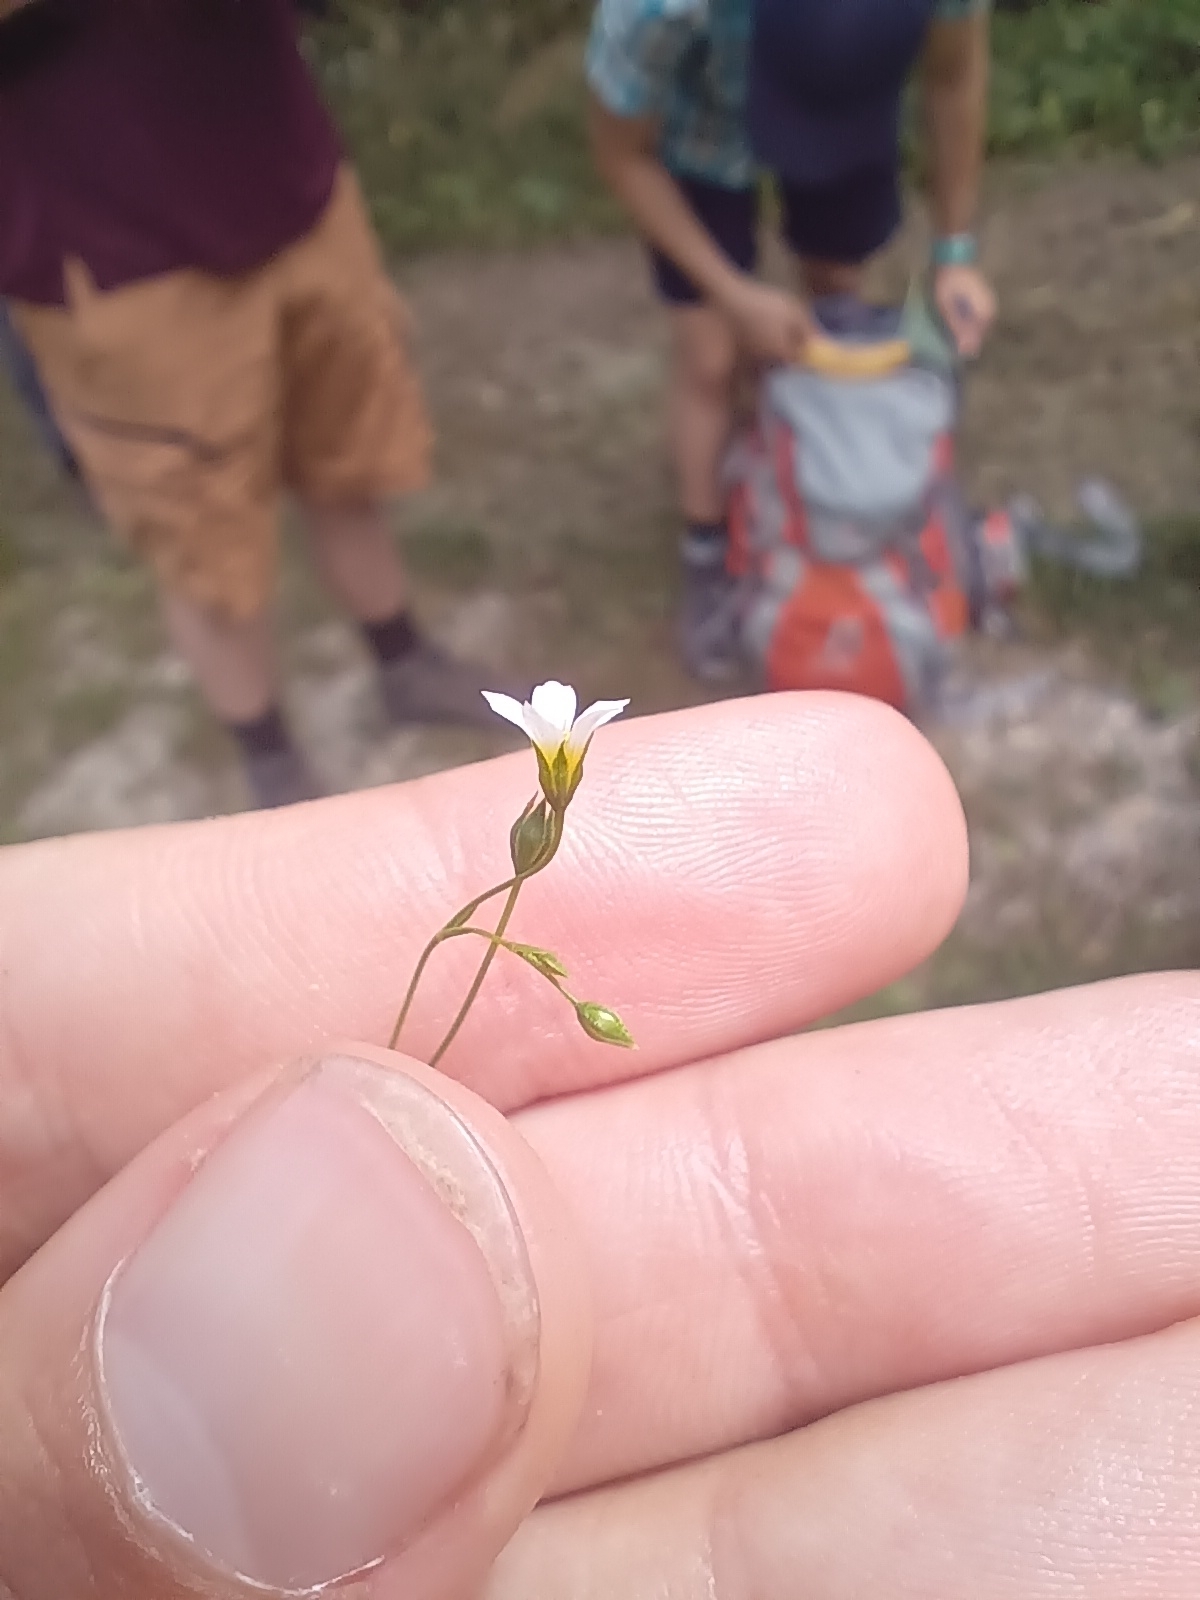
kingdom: Plantae
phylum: Tracheophyta
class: Magnoliopsida
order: Malpighiales
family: Linaceae
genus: Linum
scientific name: Linum catharticum
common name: Fairy flax
